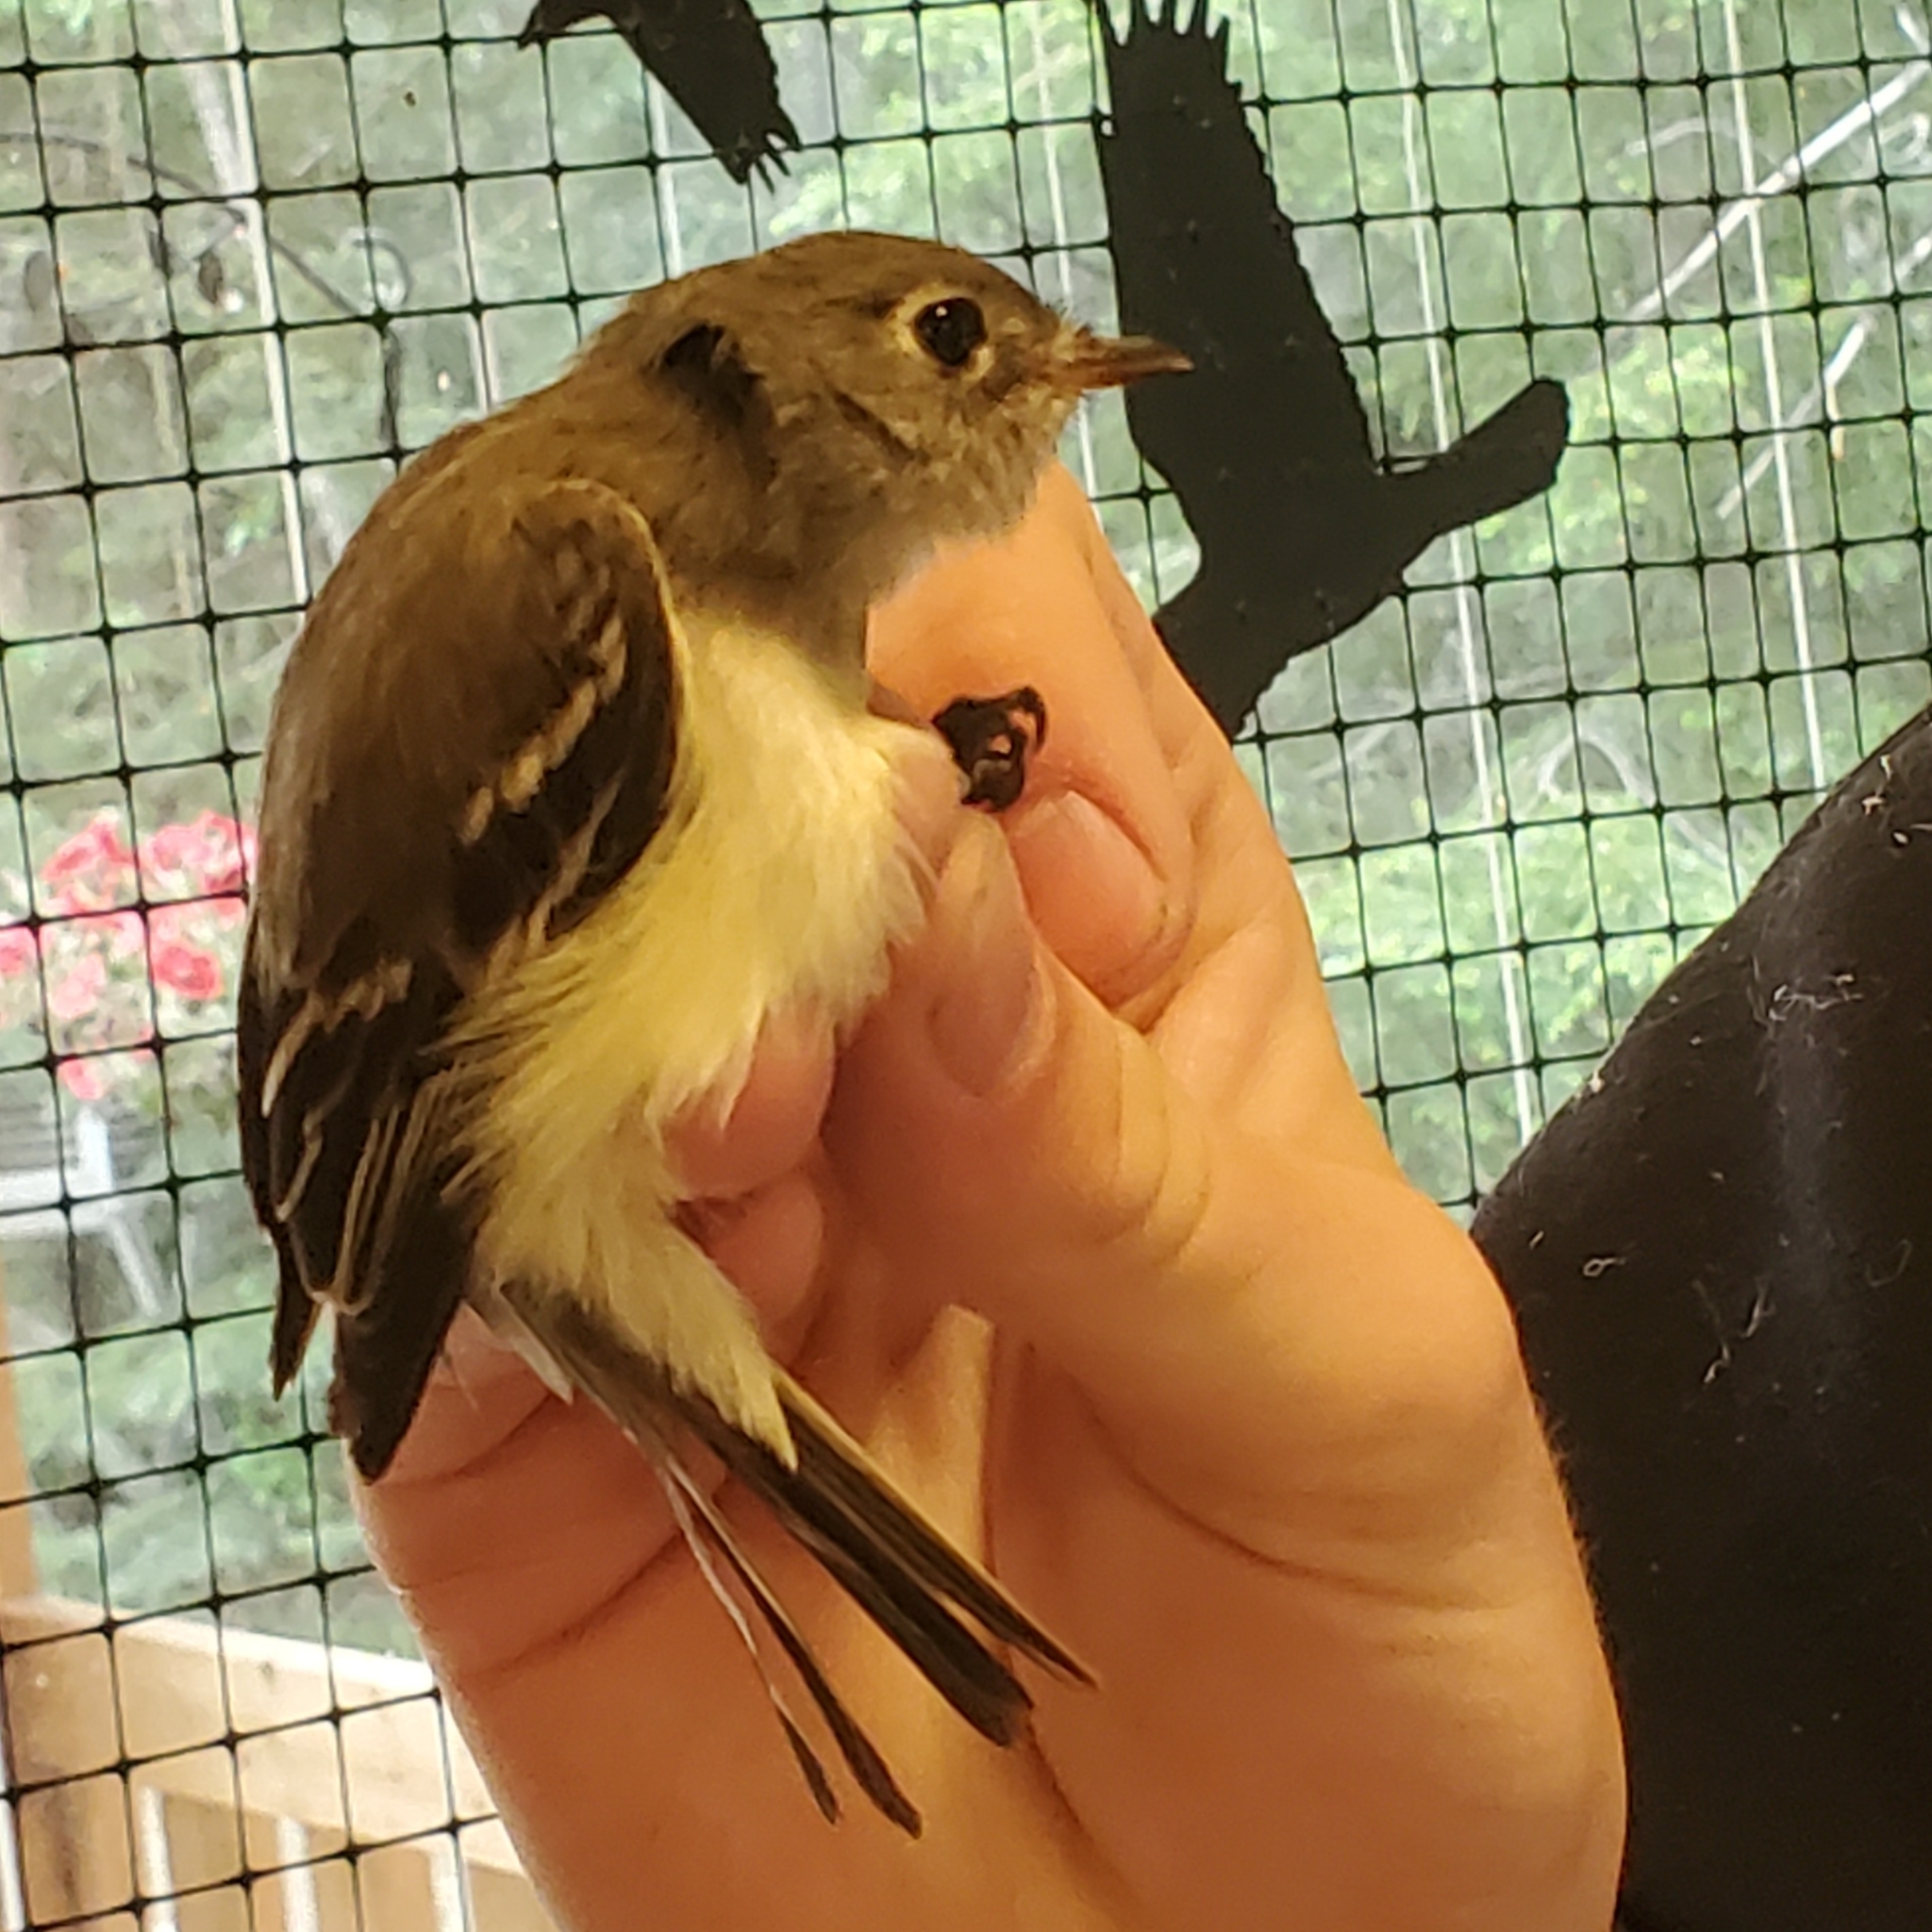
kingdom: Animalia
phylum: Chordata
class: Aves
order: Passeriformes
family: Tyrannidae
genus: Empidonax
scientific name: Empidonax minimus
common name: Least flycatcher
